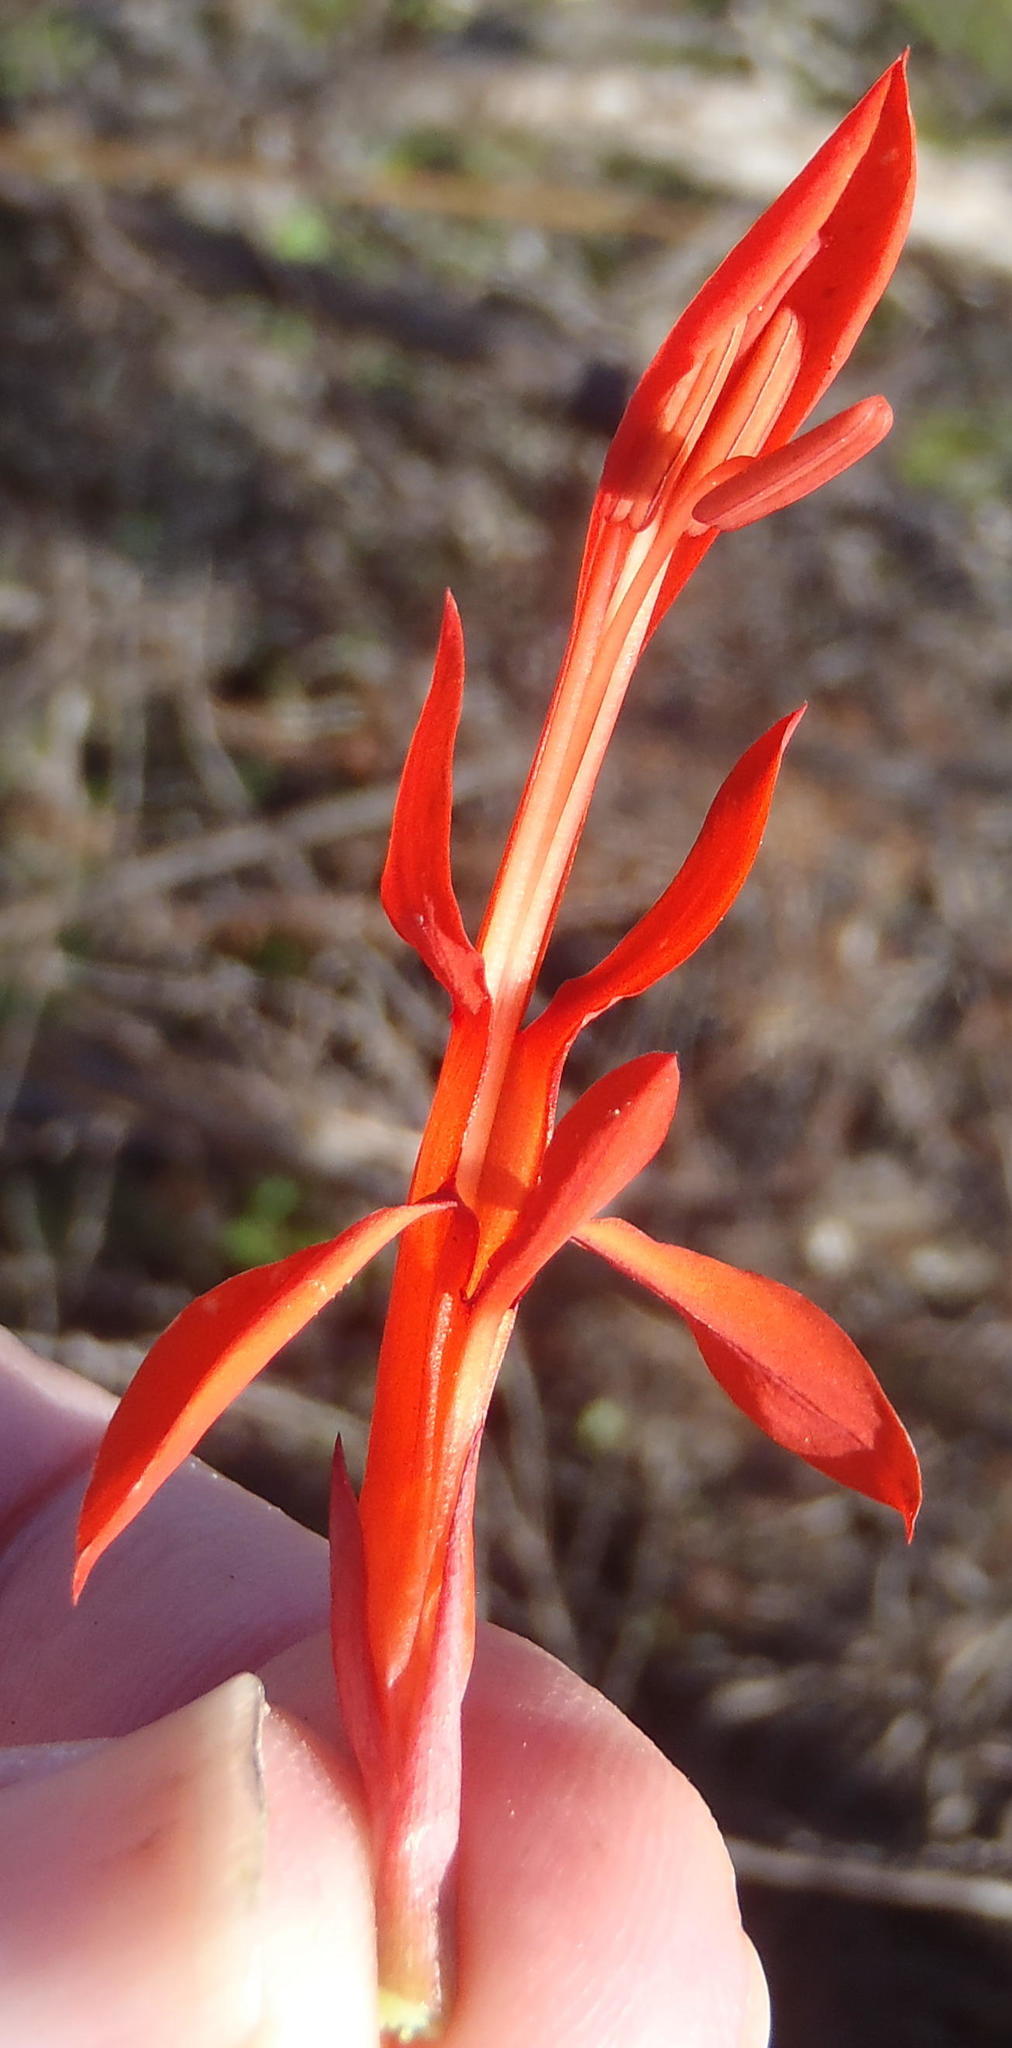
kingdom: Plantae
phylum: Tracheophyta
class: Liliopsida
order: Asparagales
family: Iridaceae
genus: Tritoniopsis
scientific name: Tritoniopsis caffra
